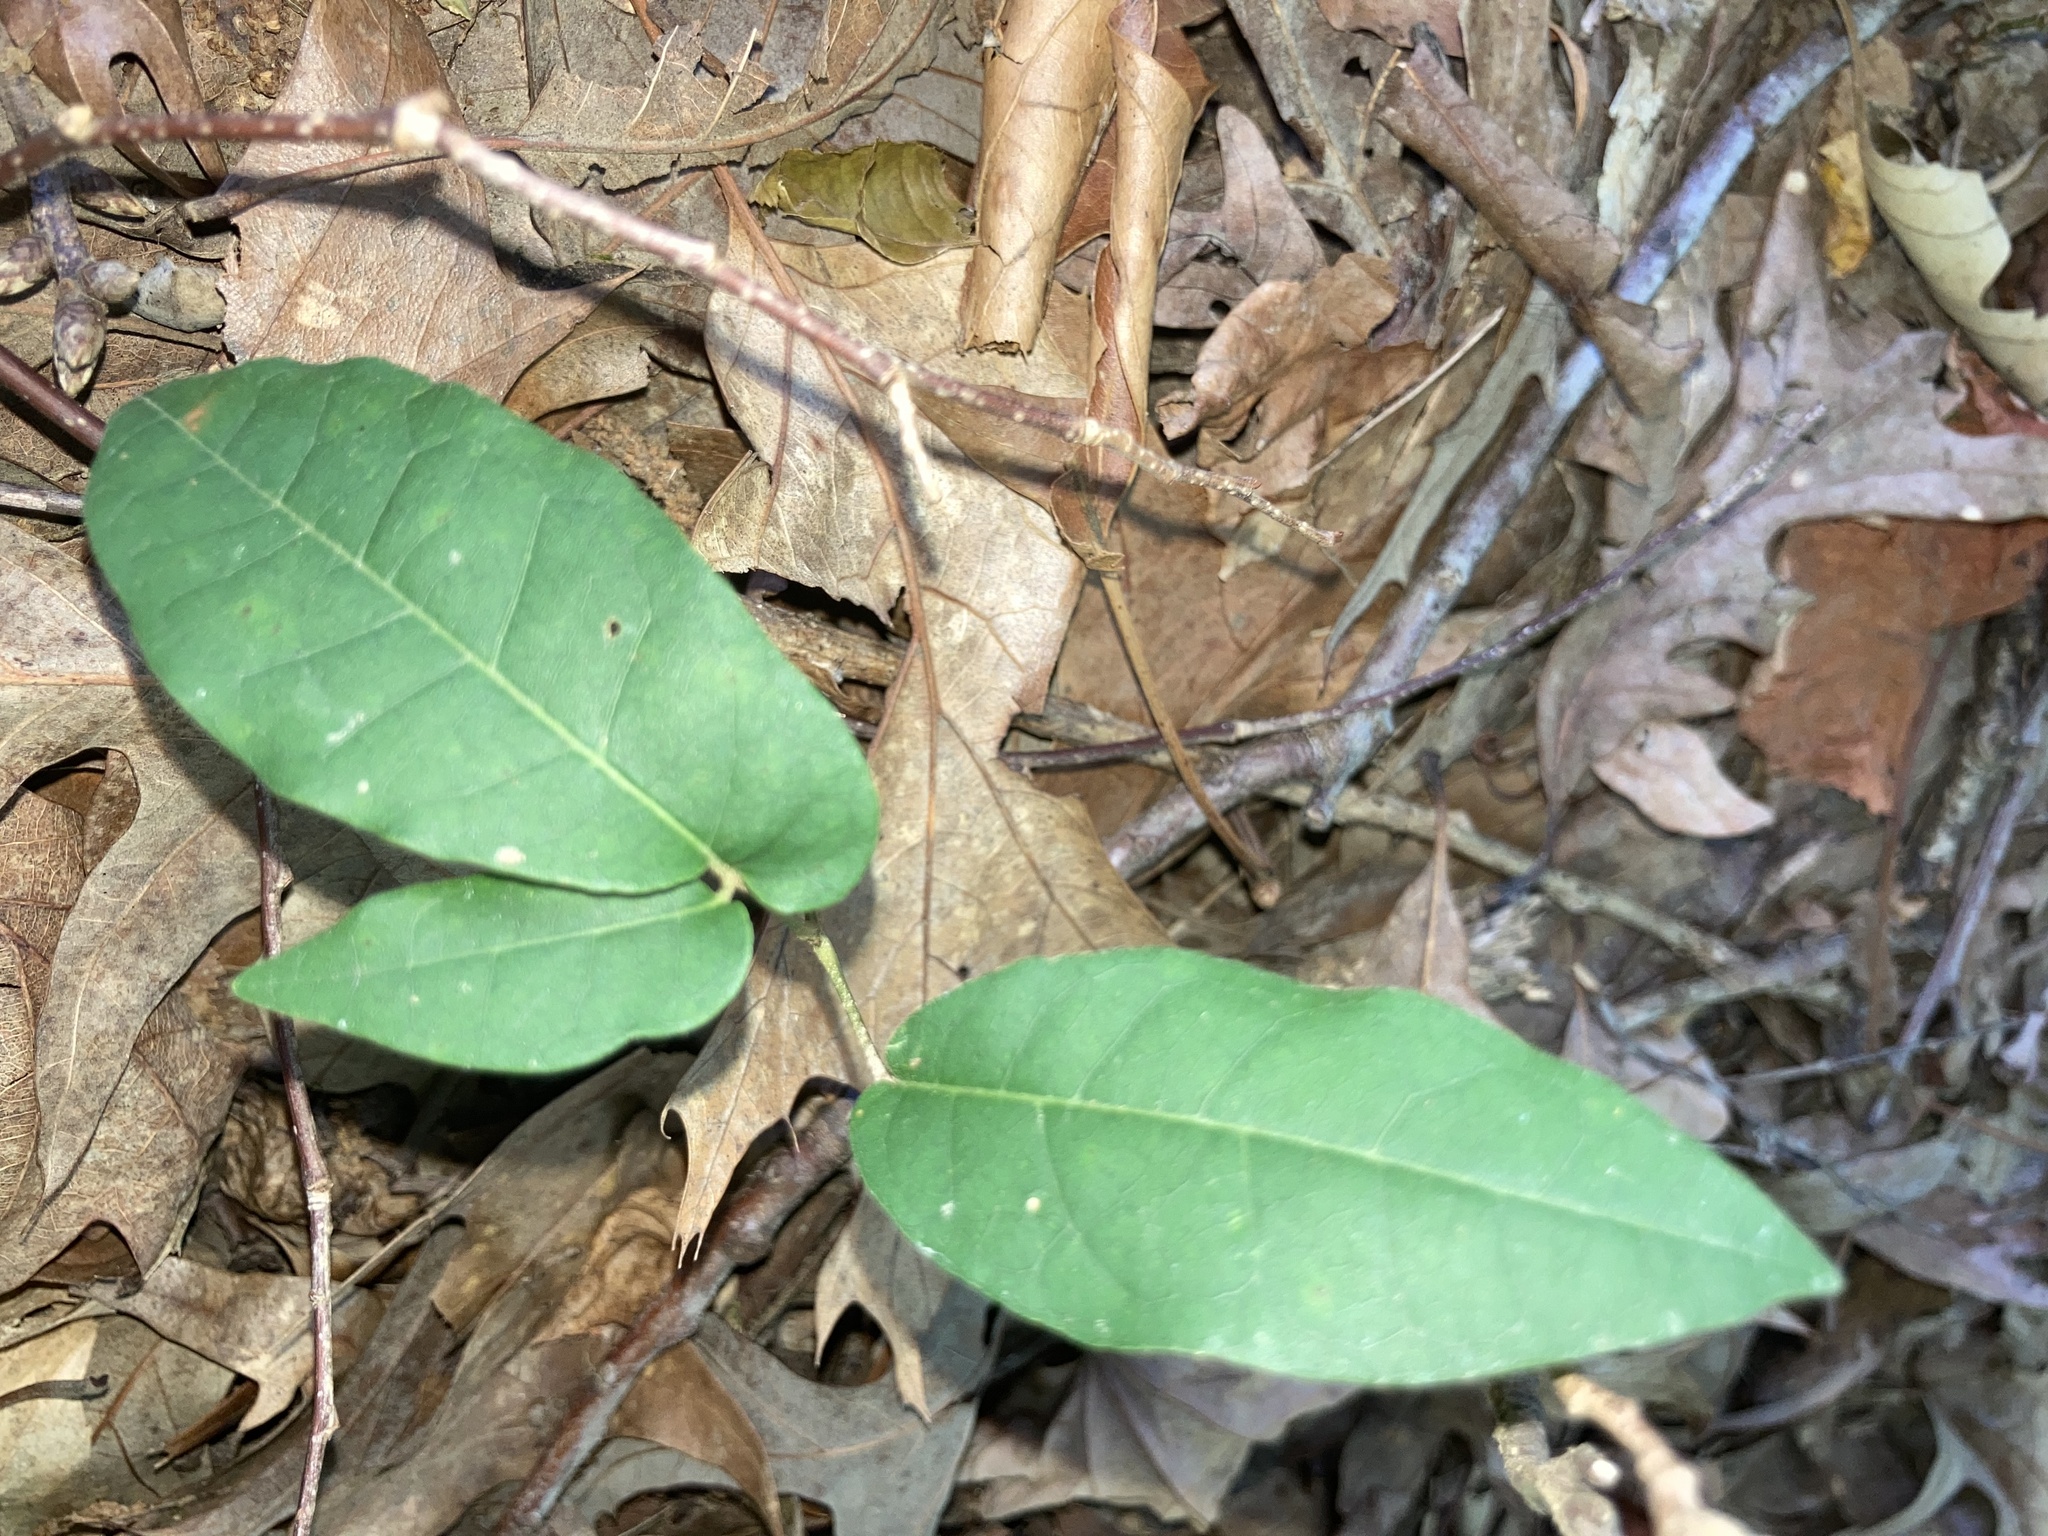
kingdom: Plantae
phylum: Tracheophyta
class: Magnoliopsida
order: Lamiales
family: Bignoniaceae
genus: Bignonia
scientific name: Bignonia capreolata
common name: Crossvine
